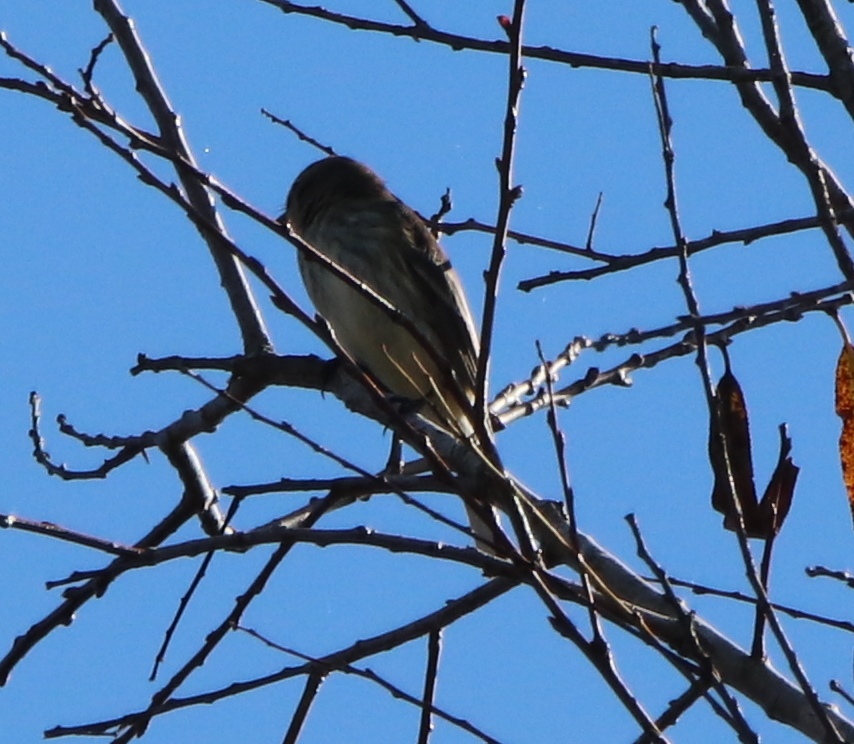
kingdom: Animalia
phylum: Chordata
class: Aves
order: Passeriformes
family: Tyrannidae
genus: Sayornis
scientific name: Sayornis phoebe
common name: Eastern phoebe
